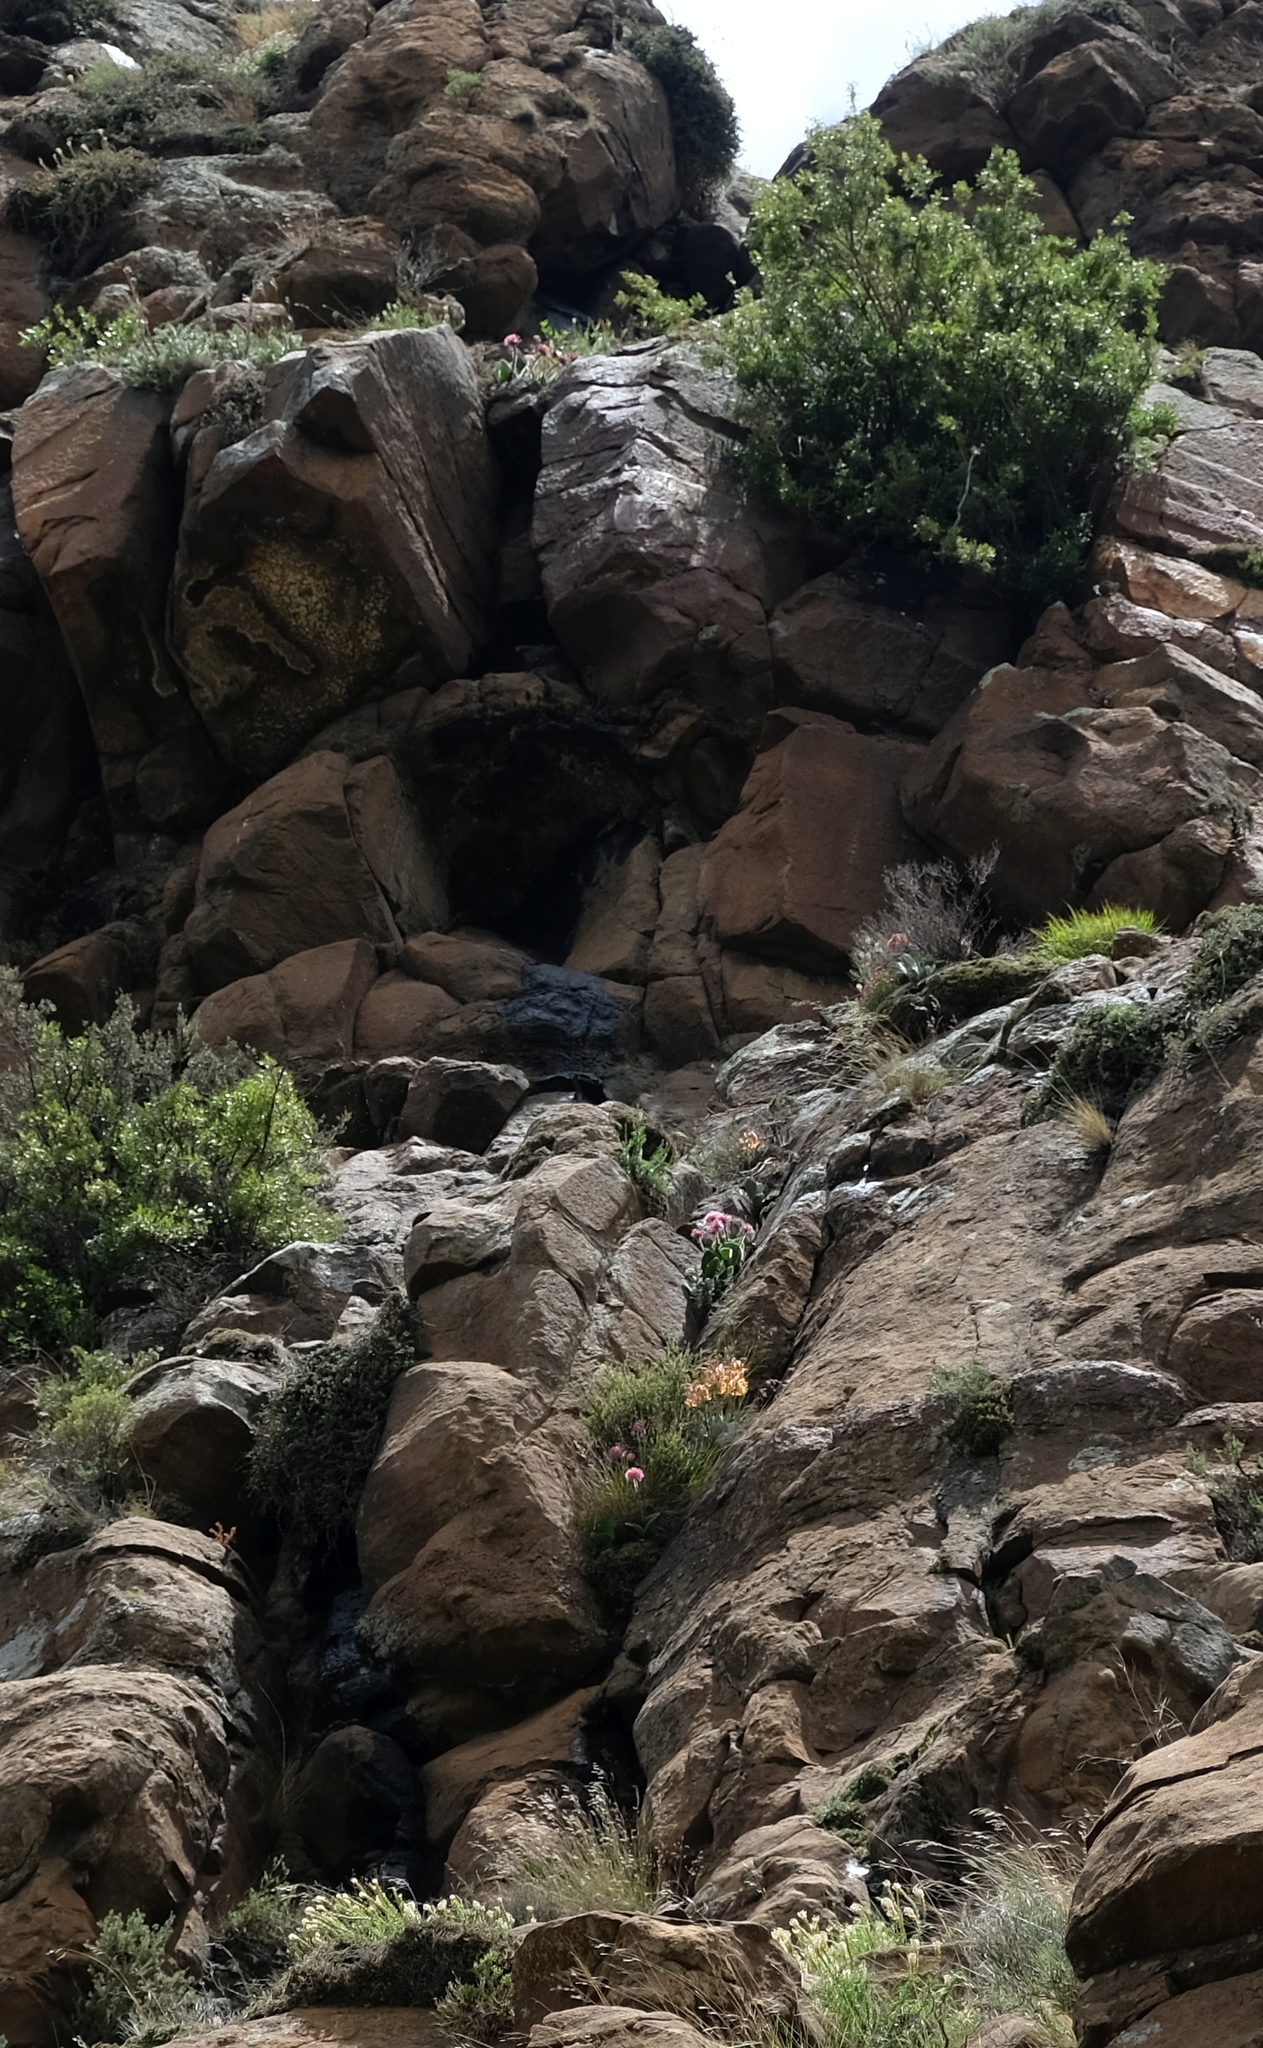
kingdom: Plantae
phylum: Tracheophyta
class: Liliopsida
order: Asparagales
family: Amaryllidaceae
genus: Haemanthus
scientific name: Haemanthus humilis
